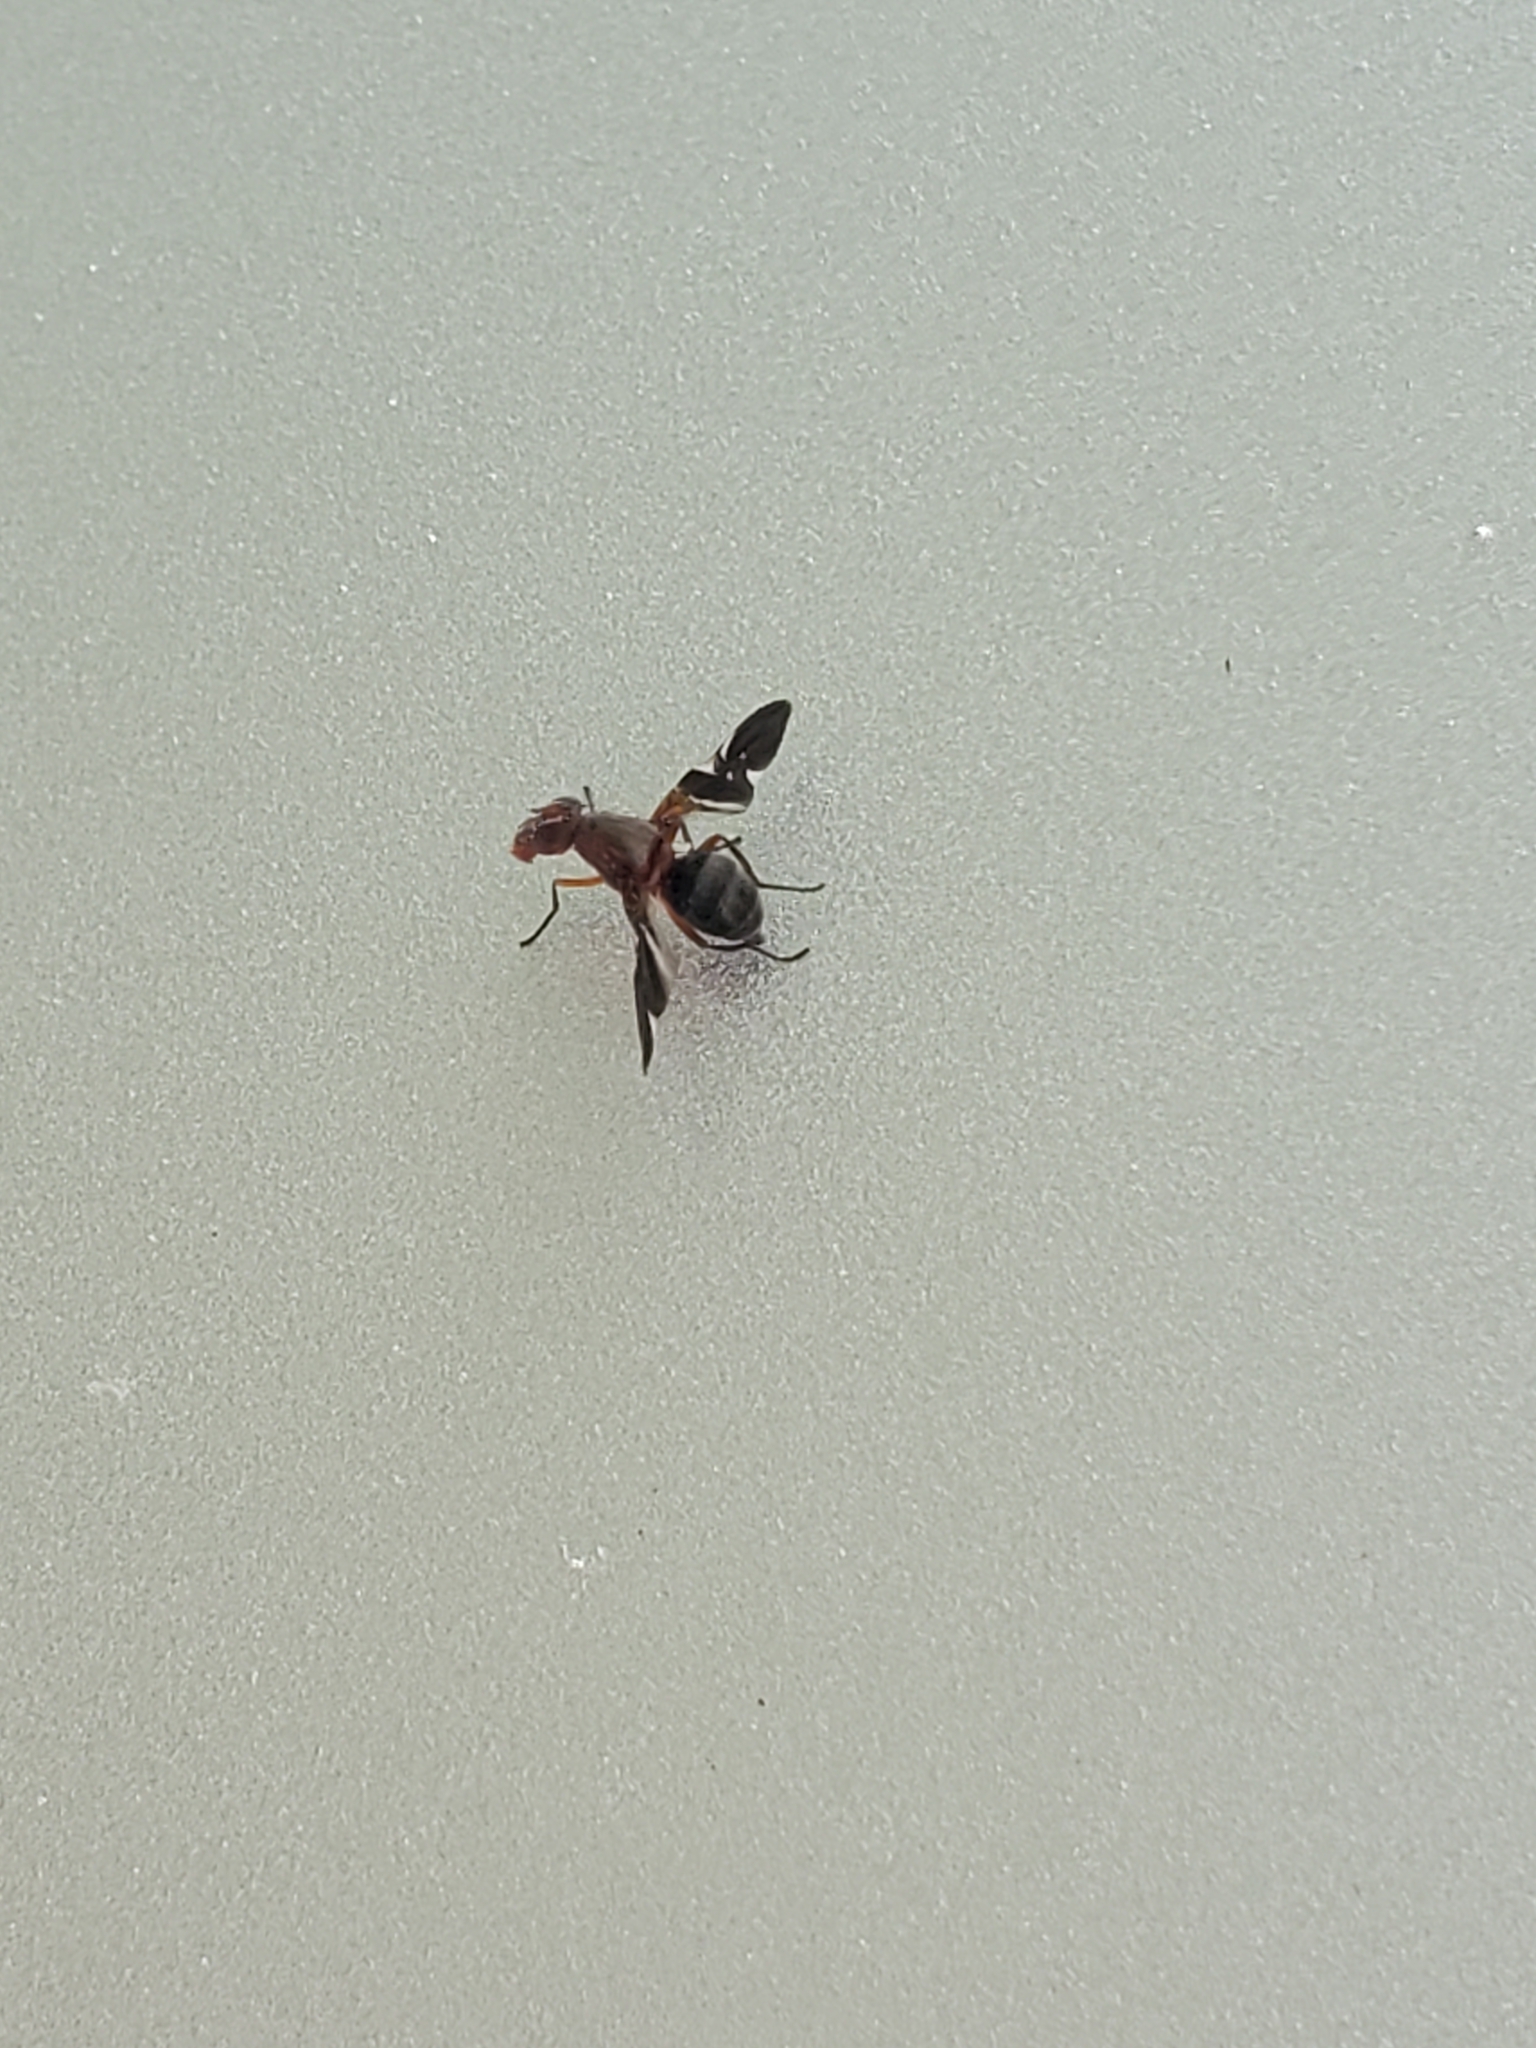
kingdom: Animalia
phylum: Arthropoda
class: Insecta
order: Diptera
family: Ulidiidae
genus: Delphinia
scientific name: Delphinia picta
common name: Common picture-winged fly
